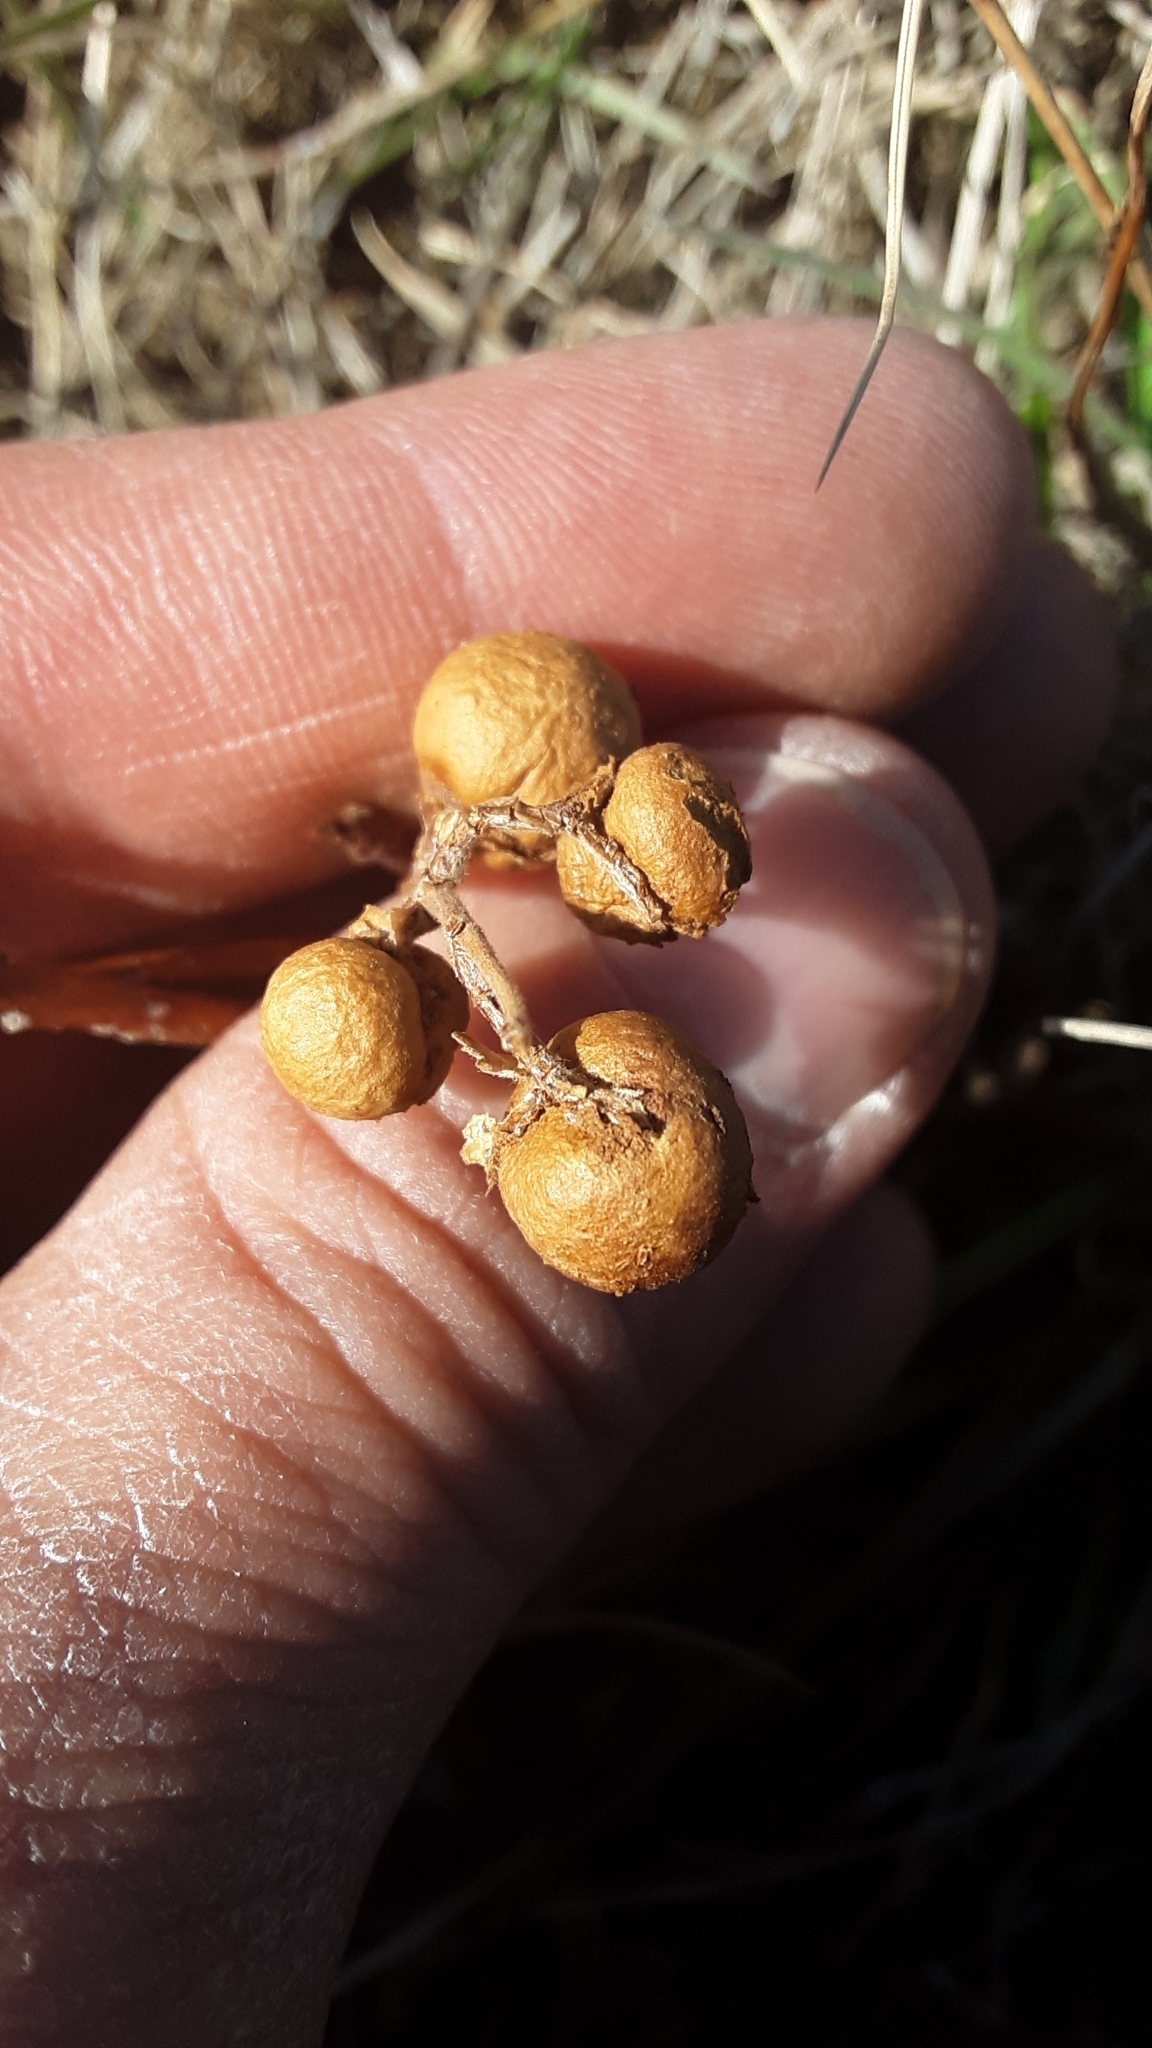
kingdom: Animalia
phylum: Arthropoda
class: Insecta
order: Hymenoptera
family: Cynipidae
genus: Diplolepis
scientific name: Diplolepis ignota
